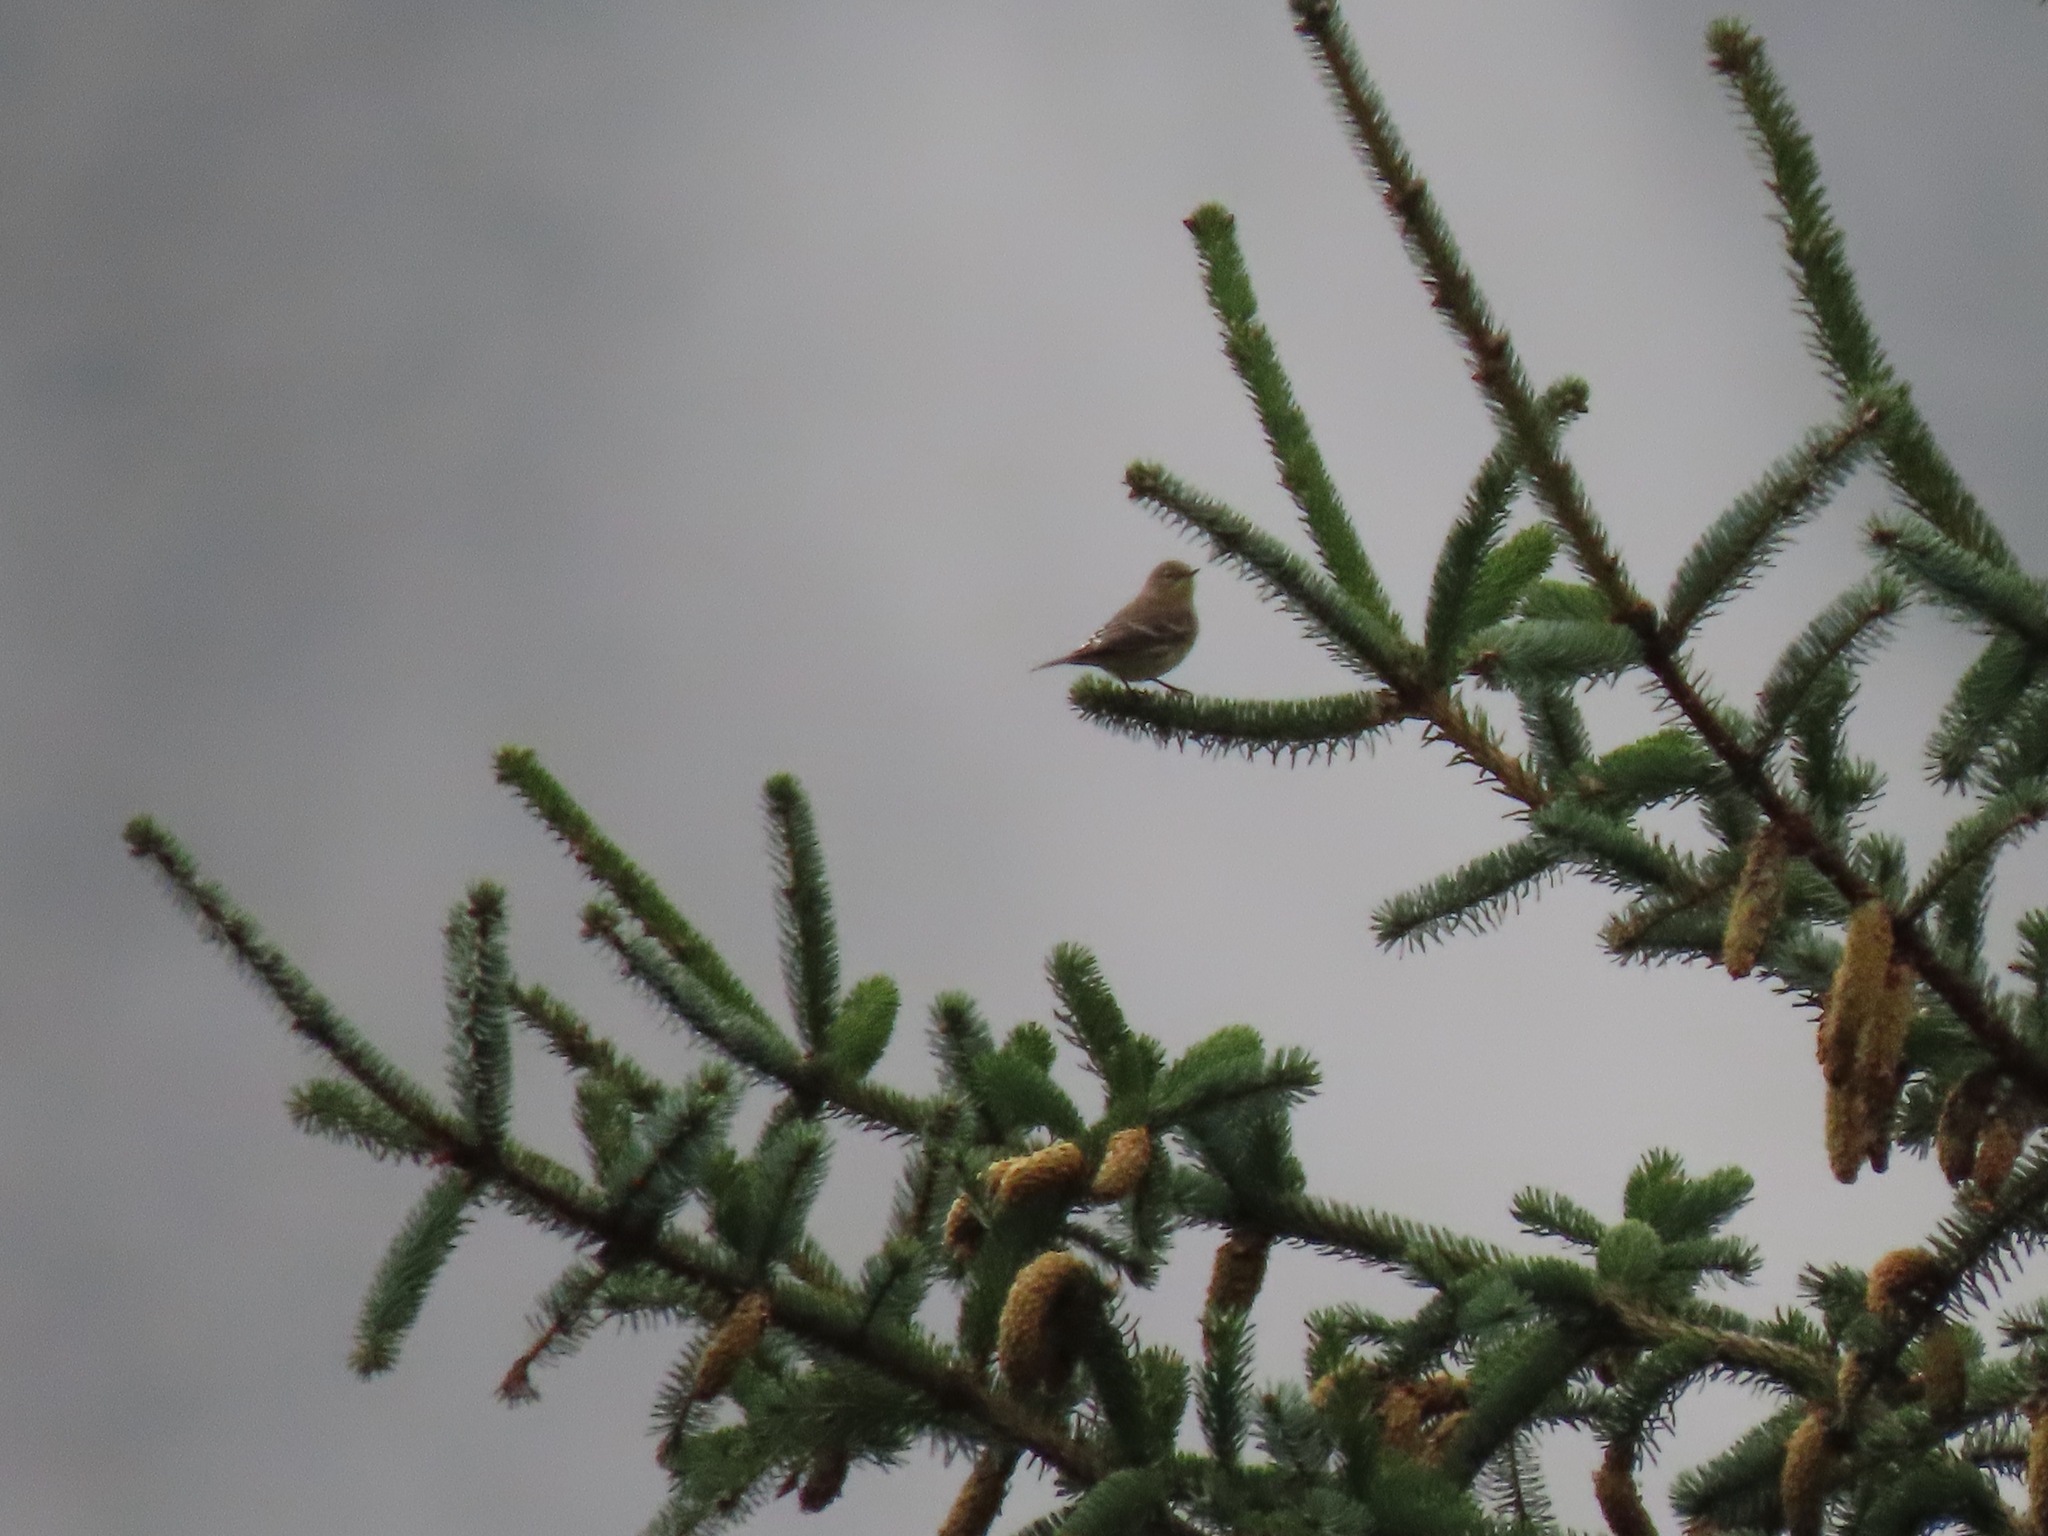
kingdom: Animalia
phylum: Chordata
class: Aves
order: Passeriformes
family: Parulidae
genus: Setophaga
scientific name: Setophaga coronata
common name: Myrtle warbler
